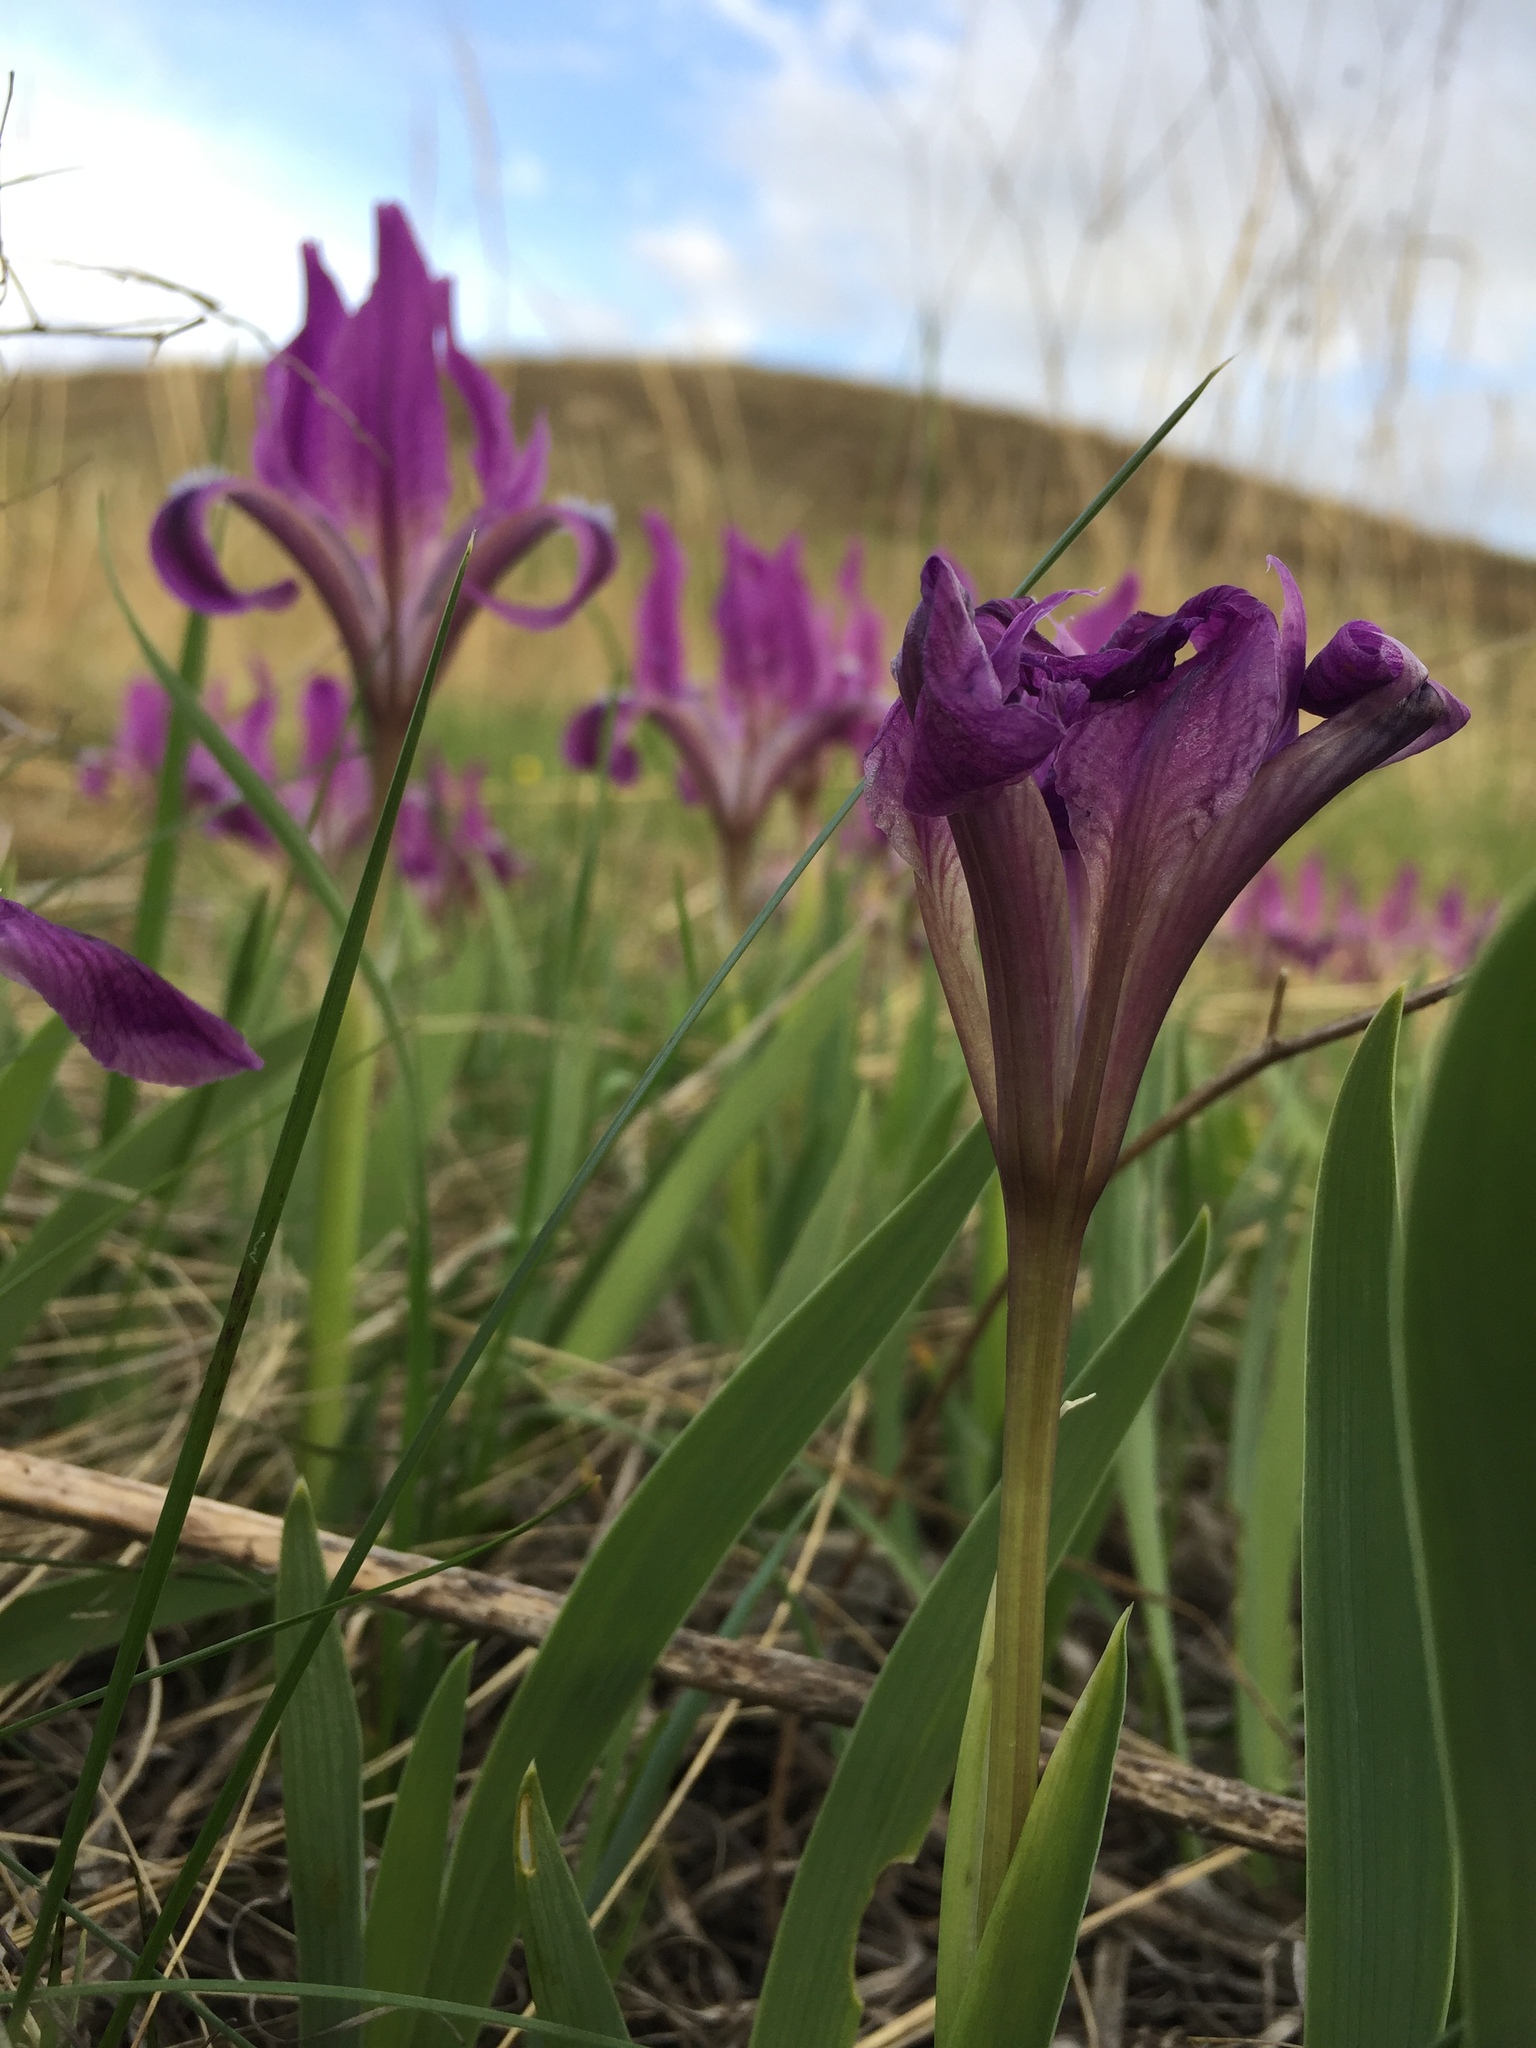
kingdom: Plantae
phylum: Tracheophyta
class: Liliopsida
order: Asparagales
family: Iridaceae
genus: Iris
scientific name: Iris pumila
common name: Dwarf iris
